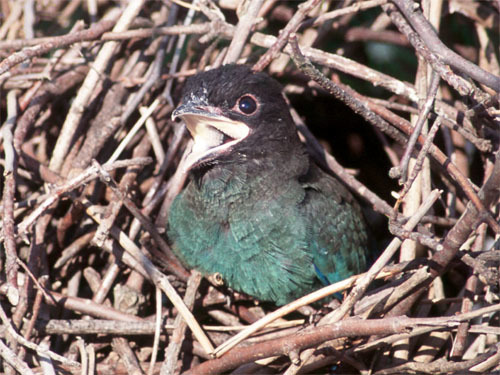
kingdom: Animalia
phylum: Chordata
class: Aves
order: Coraciiformes
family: Coraciidae
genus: Eurystomus
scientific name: Eurystomus orientalis
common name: Oriental dollarbird
